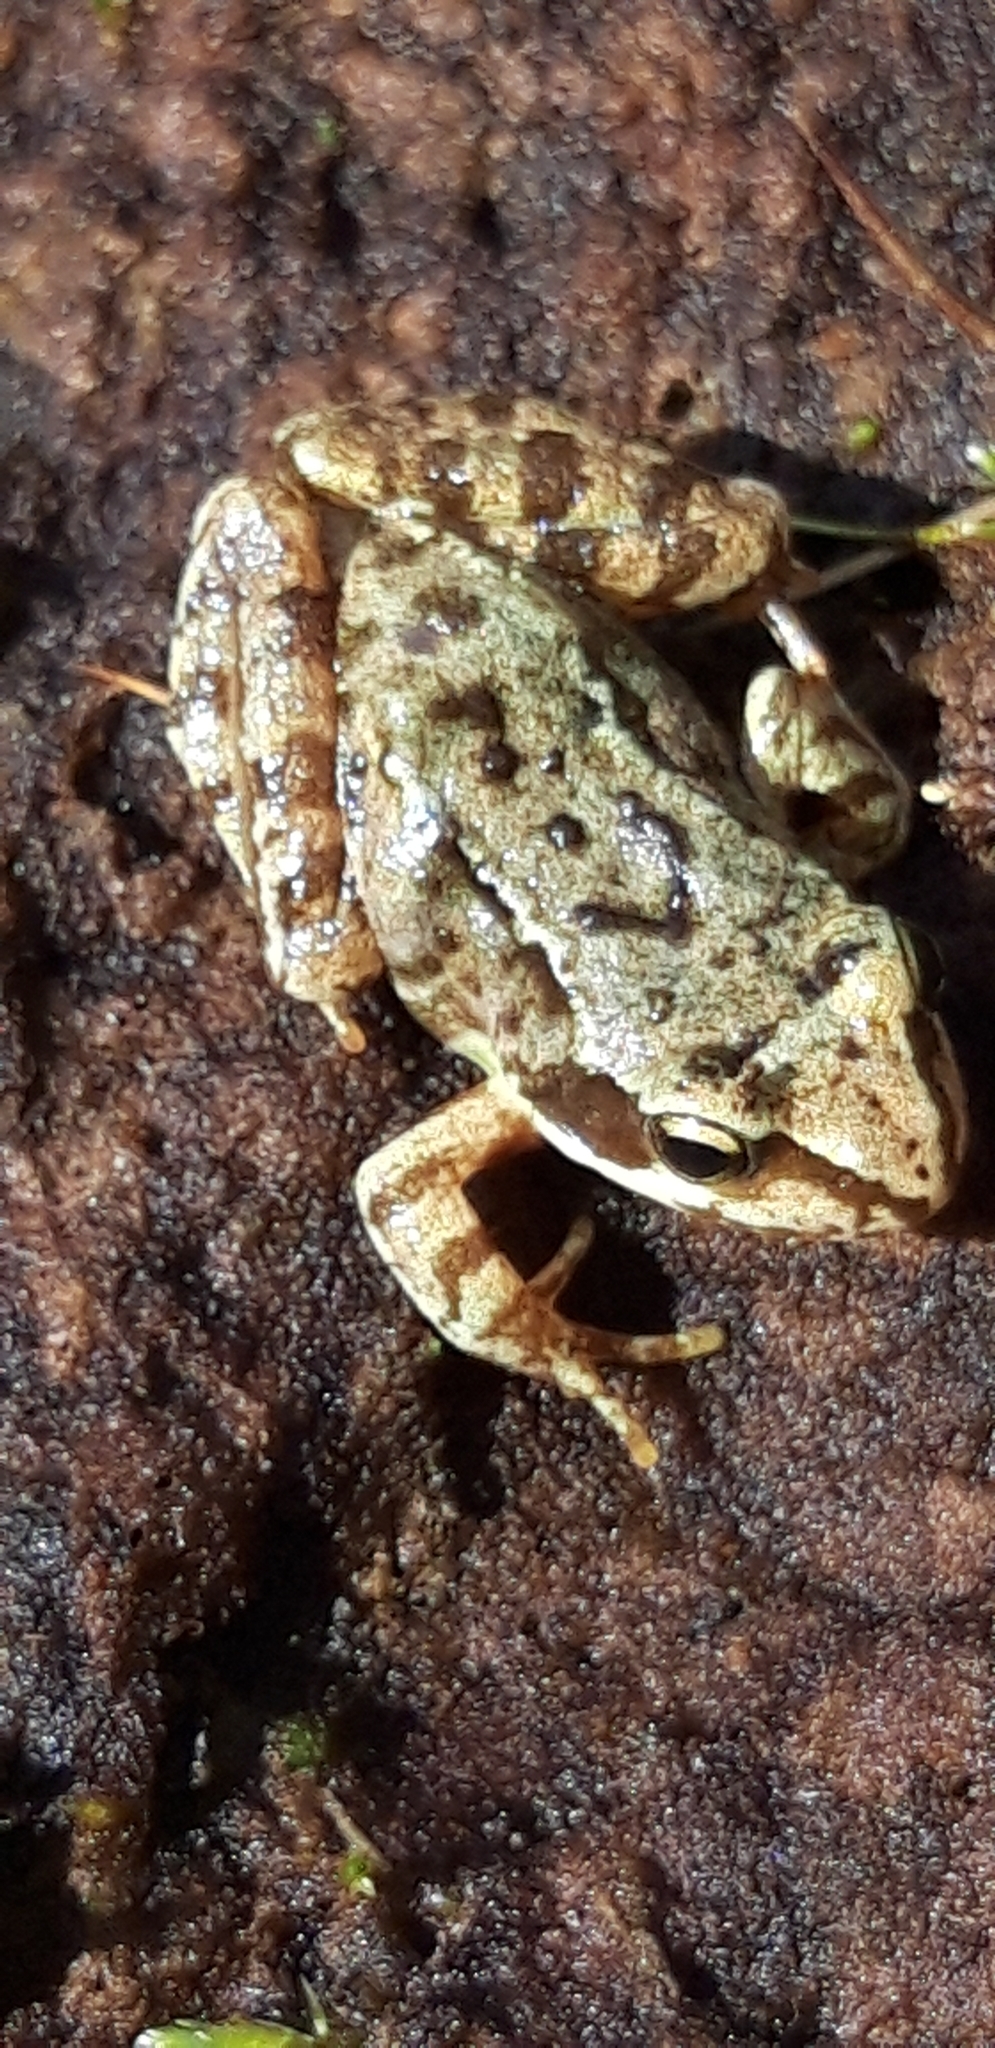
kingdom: Animalia
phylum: Chordata
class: Amphibia
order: Anura
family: Ranidae
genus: Rana
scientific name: Rana temporaria
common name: Common frog
